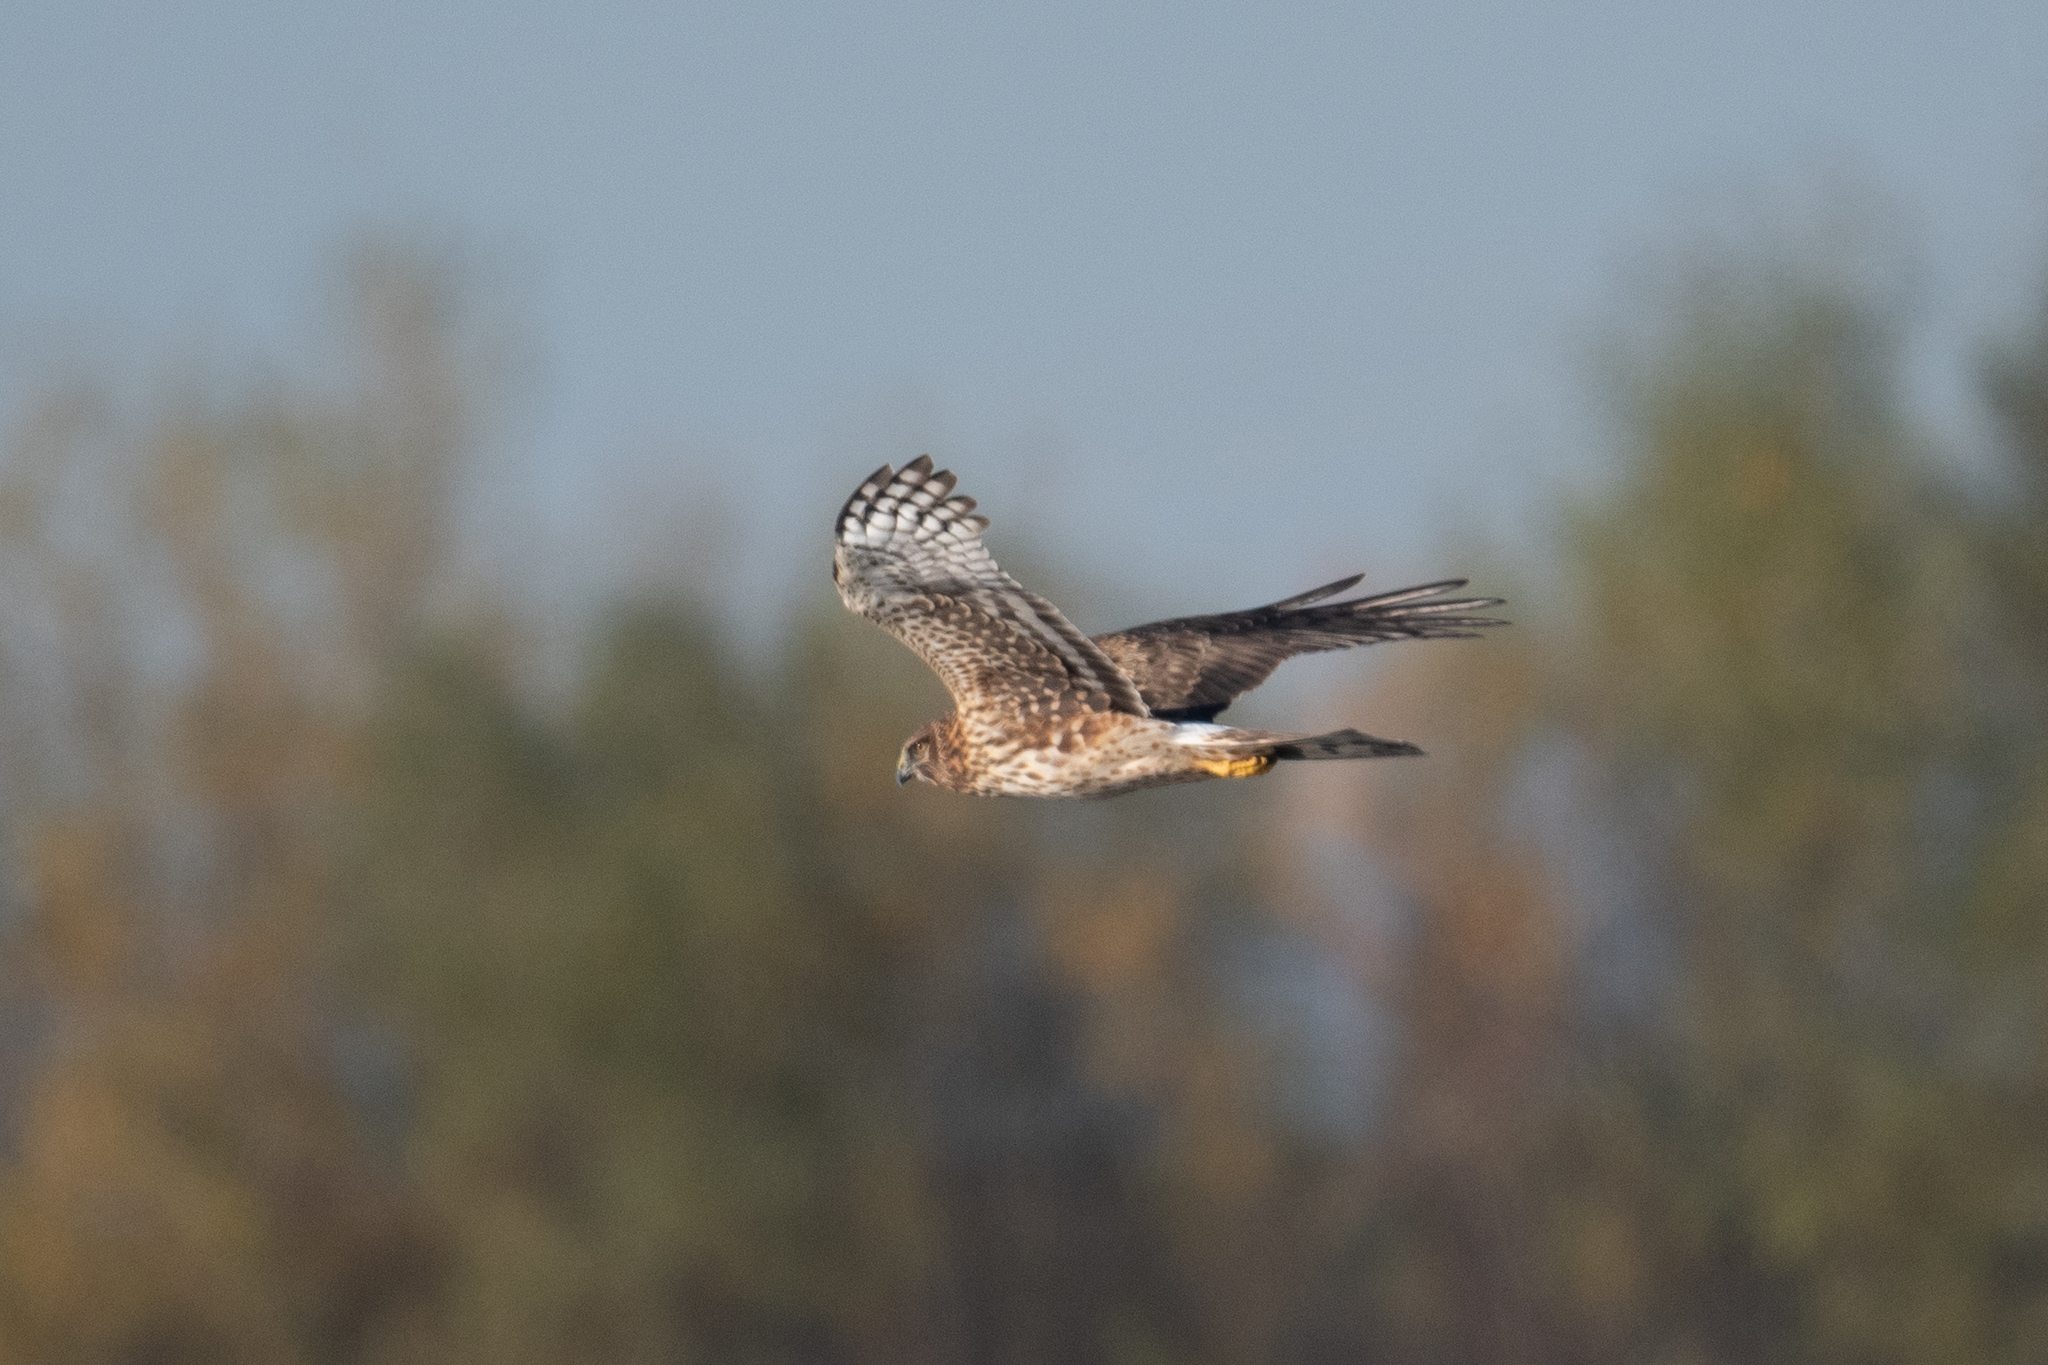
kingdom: Animalia
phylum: Chordata
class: Aves
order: Accipitriformes
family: Accipitridae
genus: Circus
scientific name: Circus cyaneus
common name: Hen harrier
